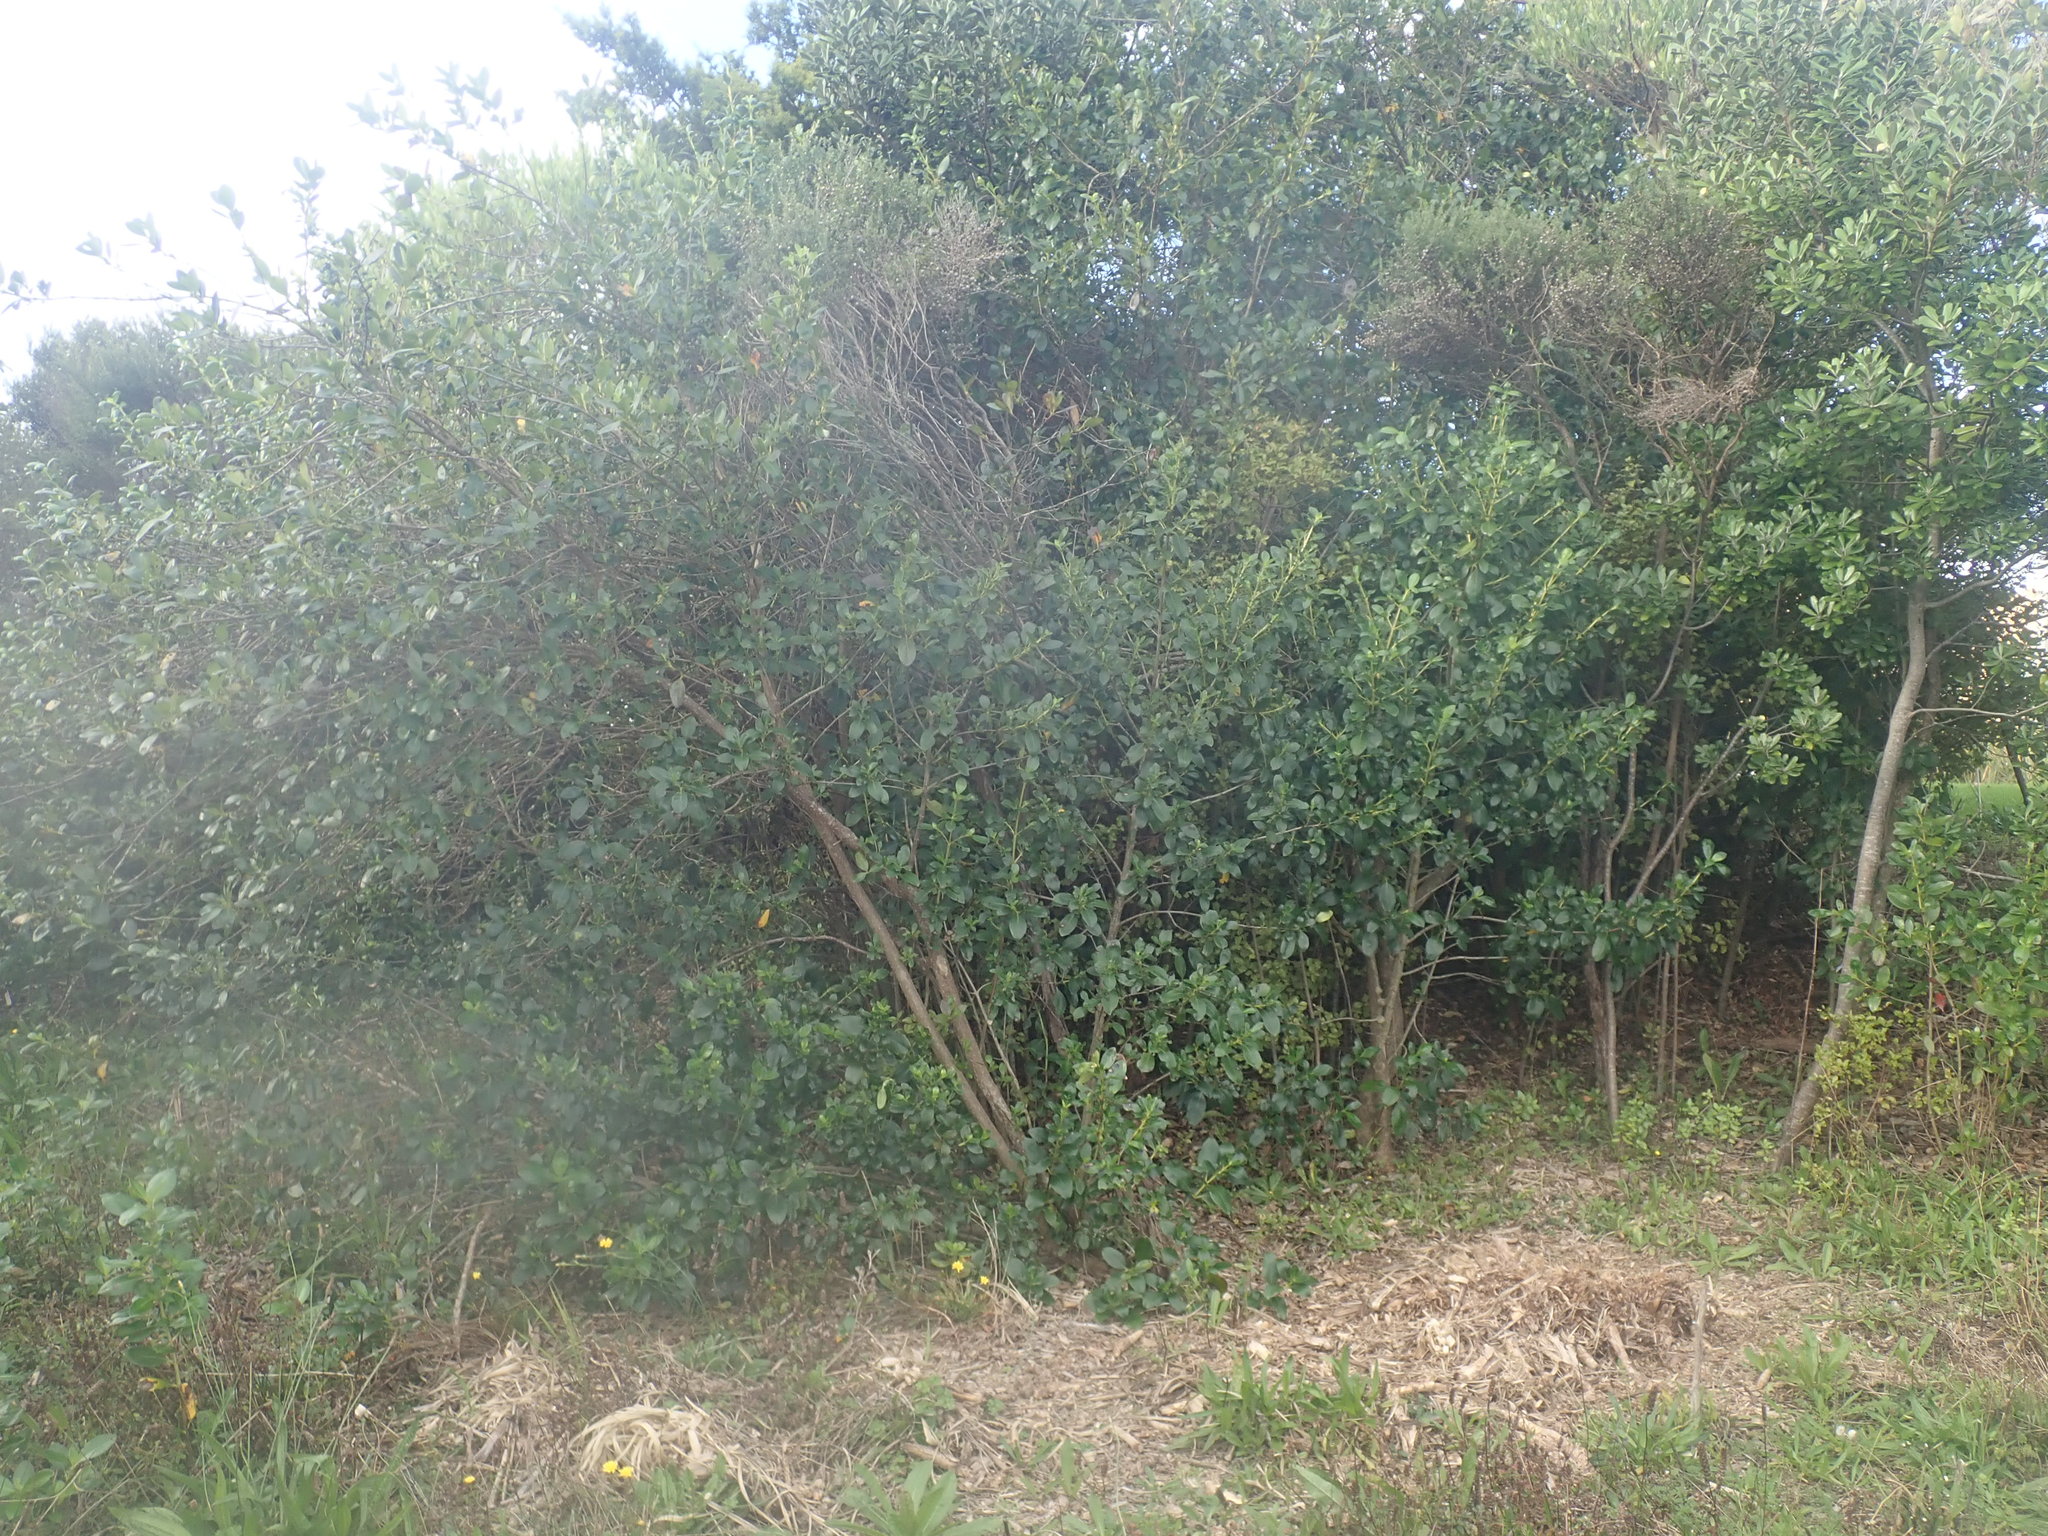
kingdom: Plantae
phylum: Tracheophyta
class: Magnoliopsida
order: Gentianales
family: Rubiaceae
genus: Coprosma
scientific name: Coprosma robusta
